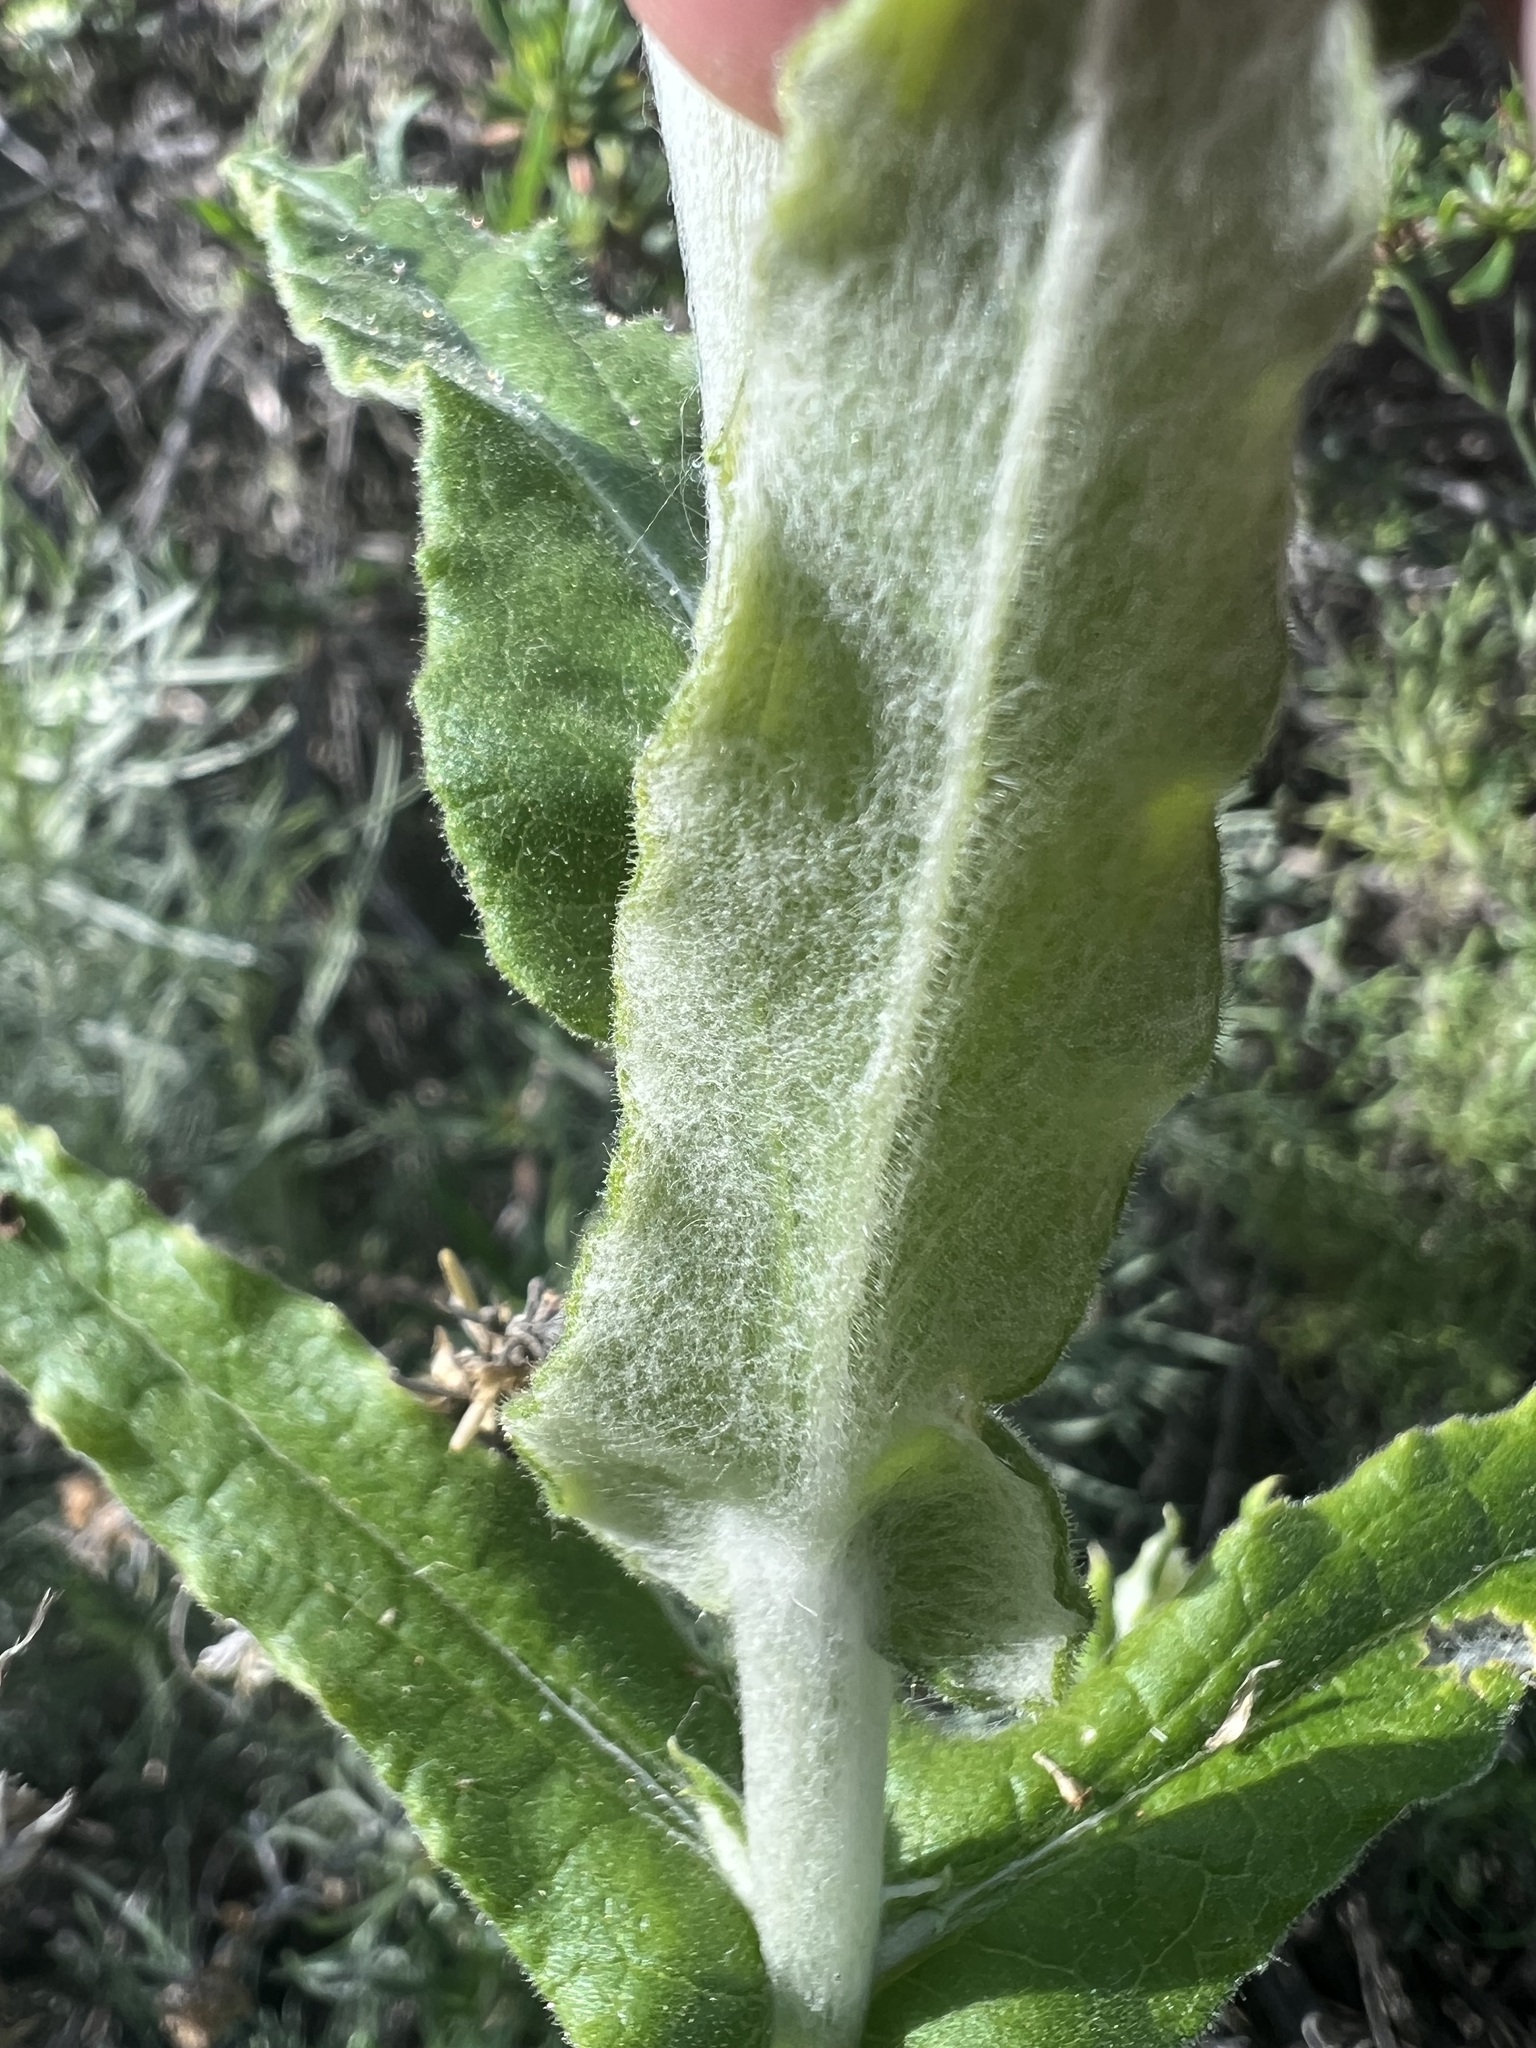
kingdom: Plantae
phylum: Tracheophyta
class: Magnoliopsida
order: Asterales
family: Asteraceae
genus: Pseudognaphalium
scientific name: Pseudognaphalium biolettii
